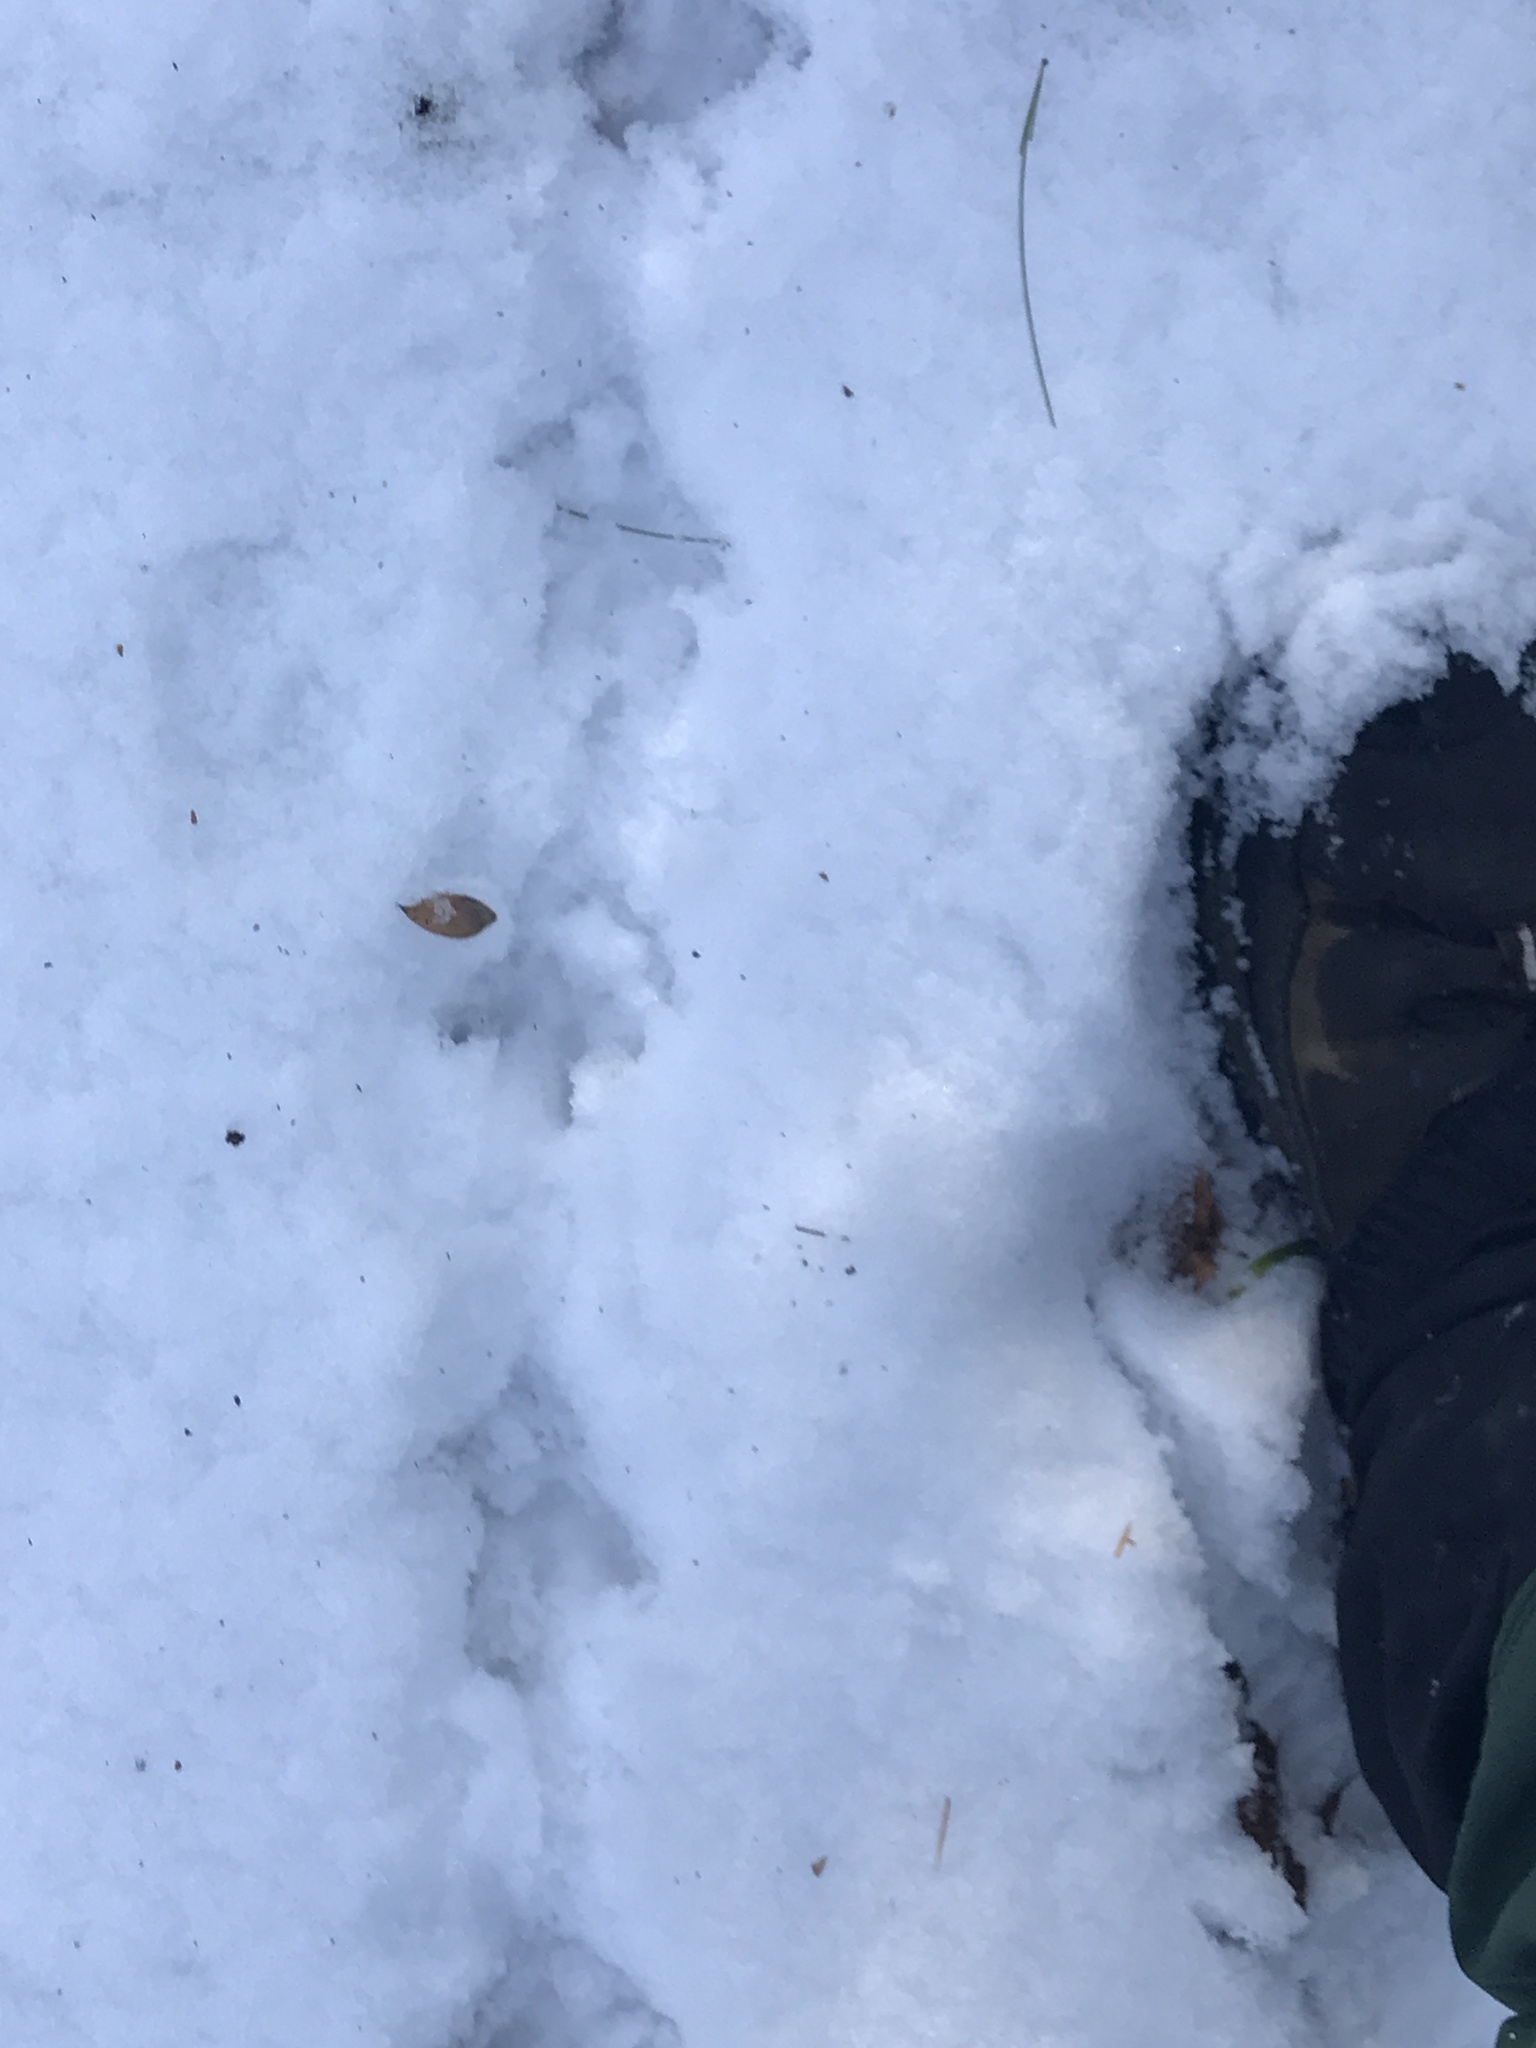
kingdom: Animalia
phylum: Chordata
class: Aves
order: Galliformes
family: Phasianidae
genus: Bonasa
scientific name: Bonasa umbellus
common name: Ruffed grouse
